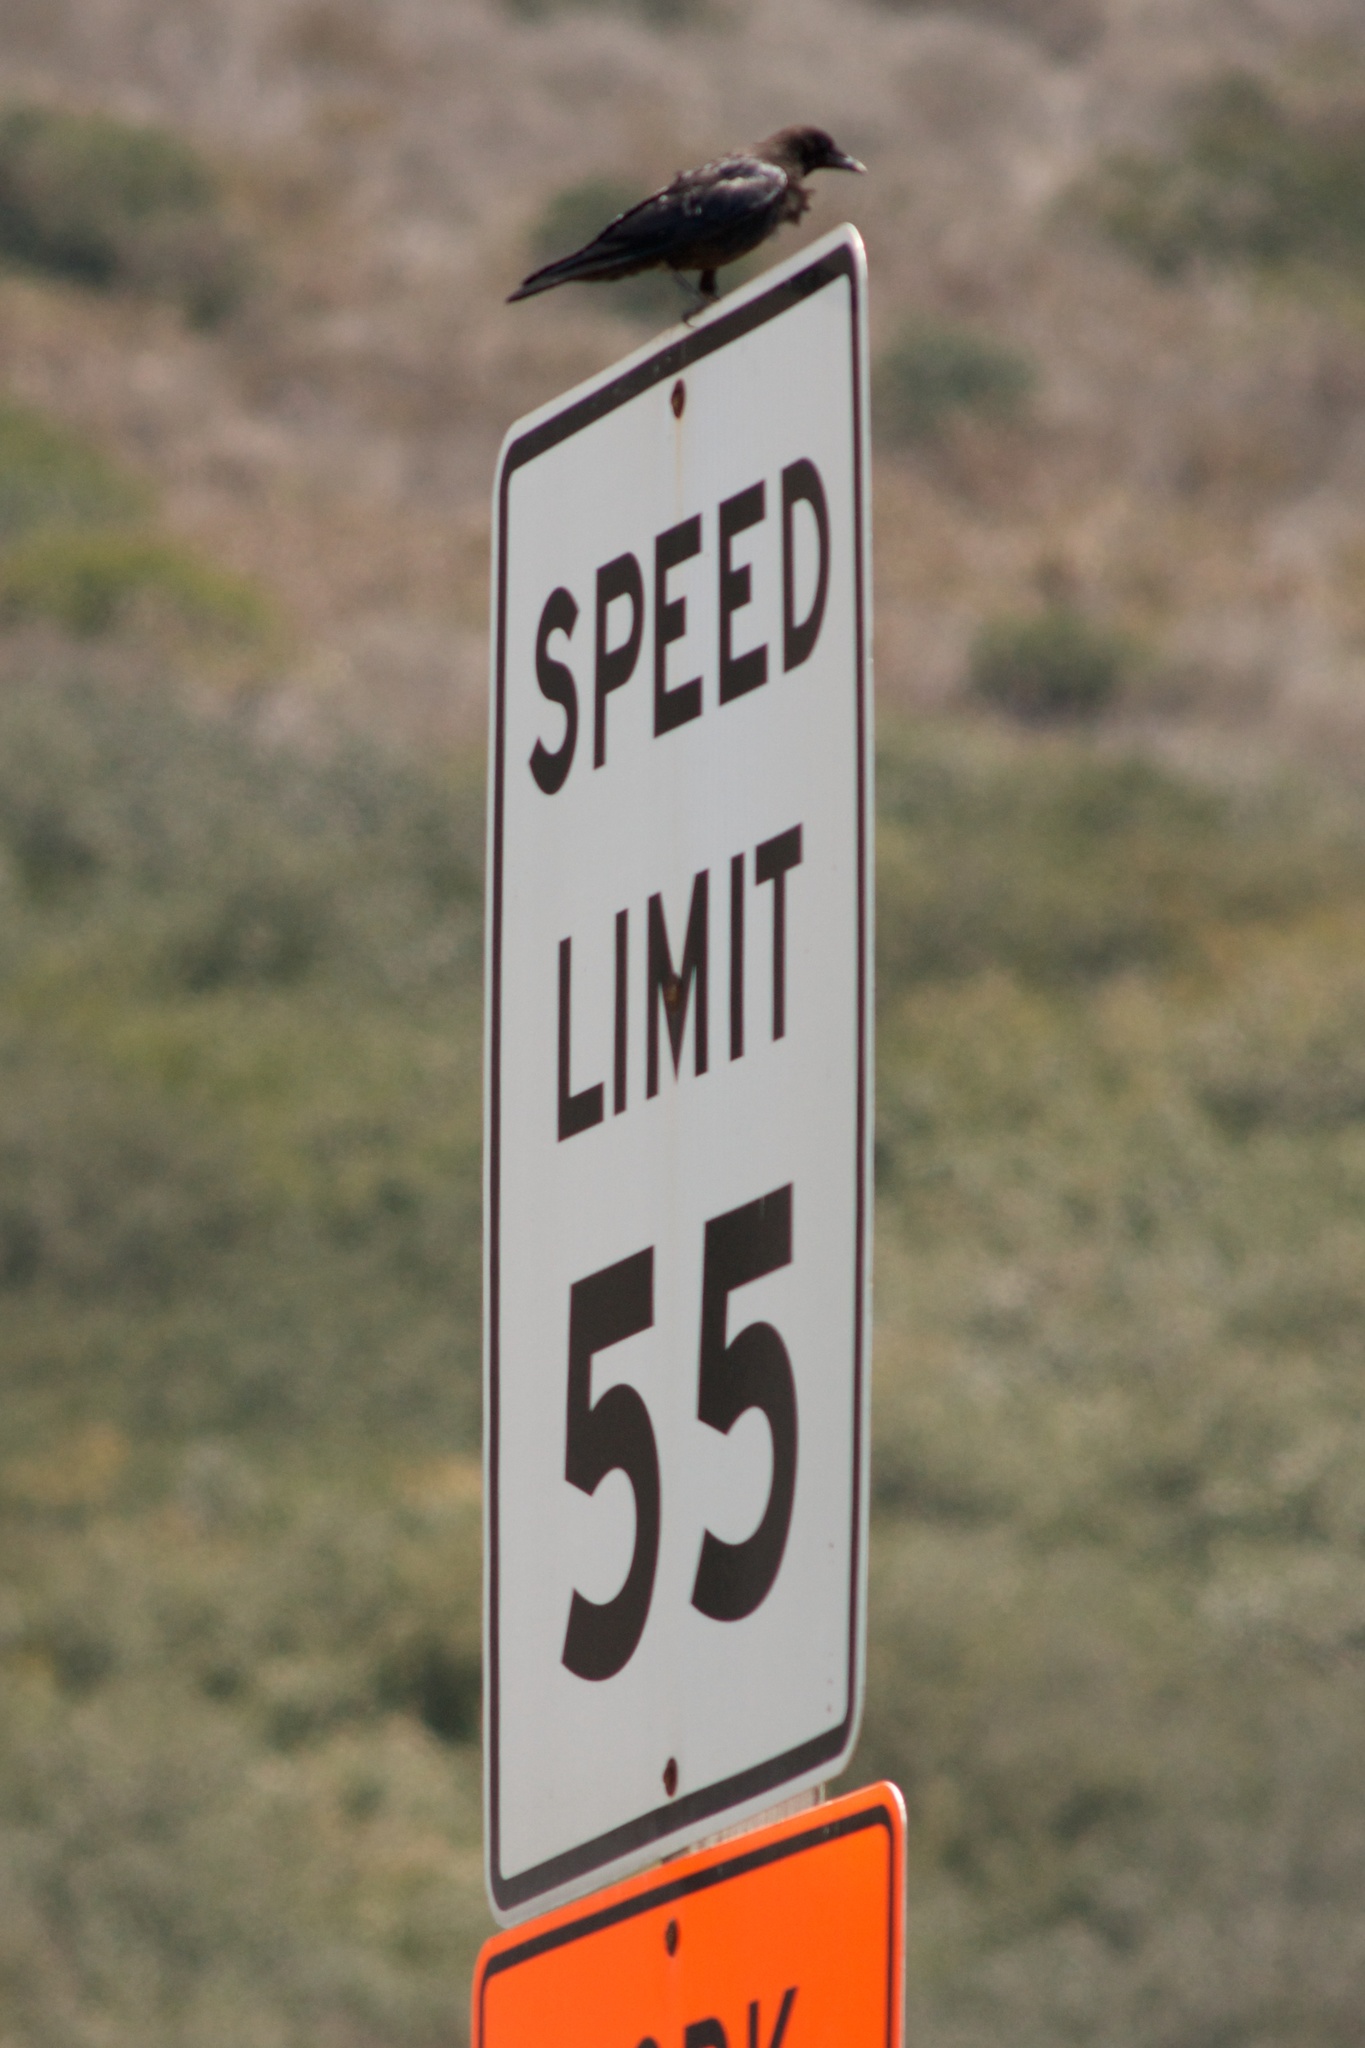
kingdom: Animalia
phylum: Chordata
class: Aves
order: Passeriformes
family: Corvidae
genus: Corvus
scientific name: Corvus brachyrhynchos
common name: American crow
